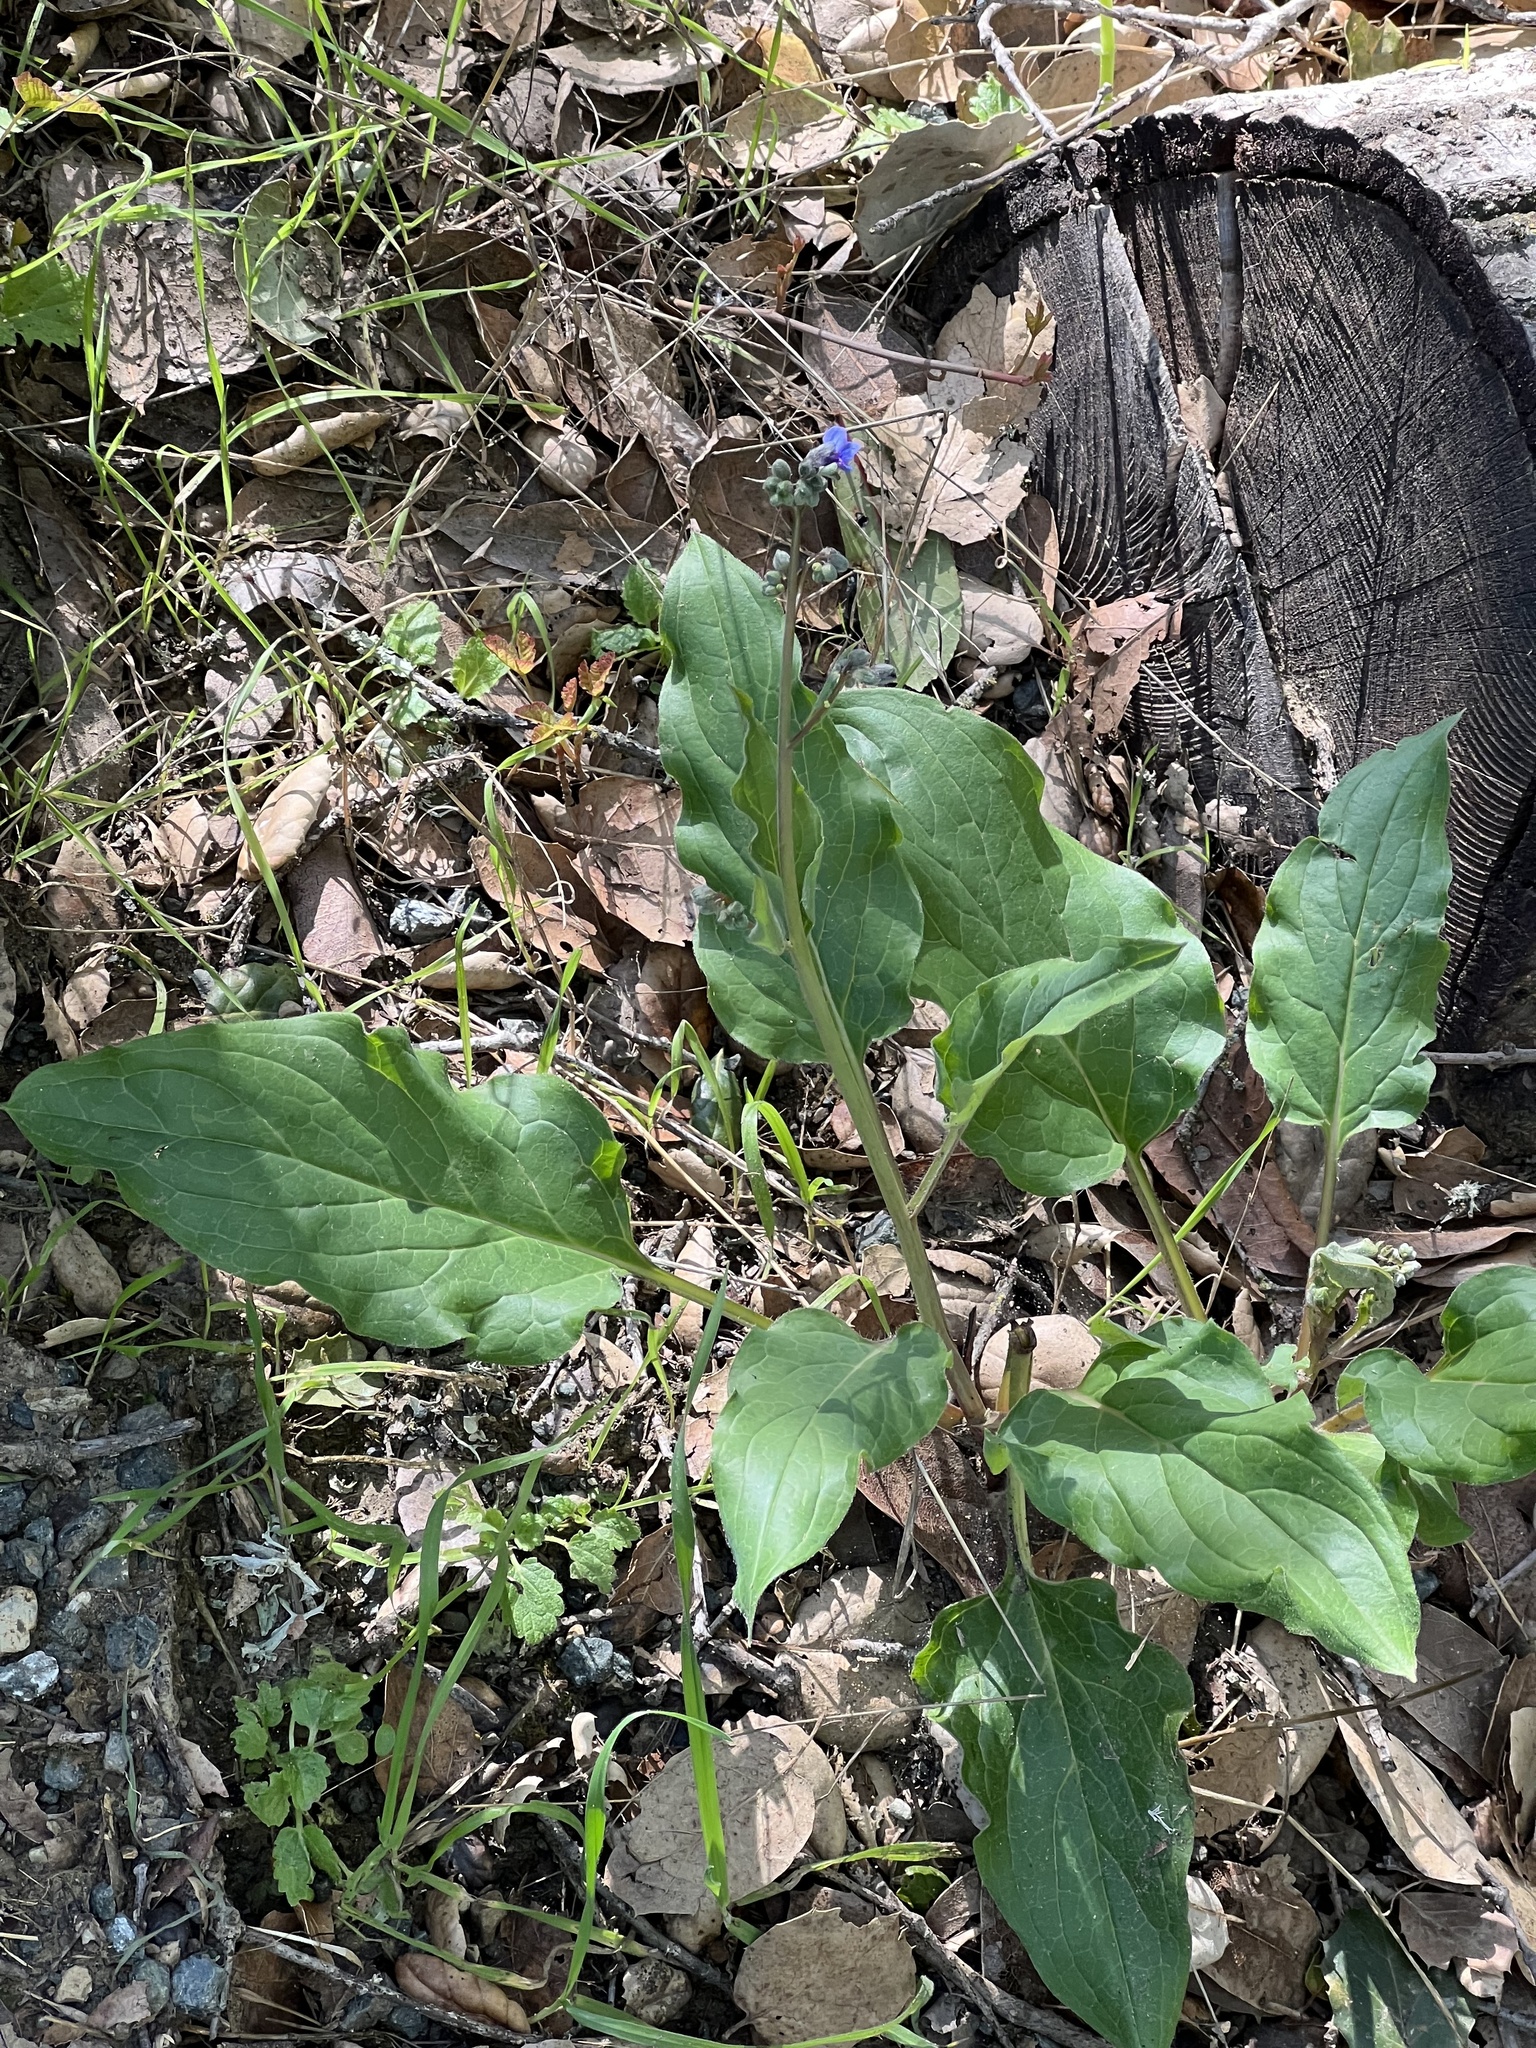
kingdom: Plantae
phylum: Tracheophyta
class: Magnoliopsida
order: Boraginales
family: Boraginaceae
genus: Adelinia
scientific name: Adelinia grande
